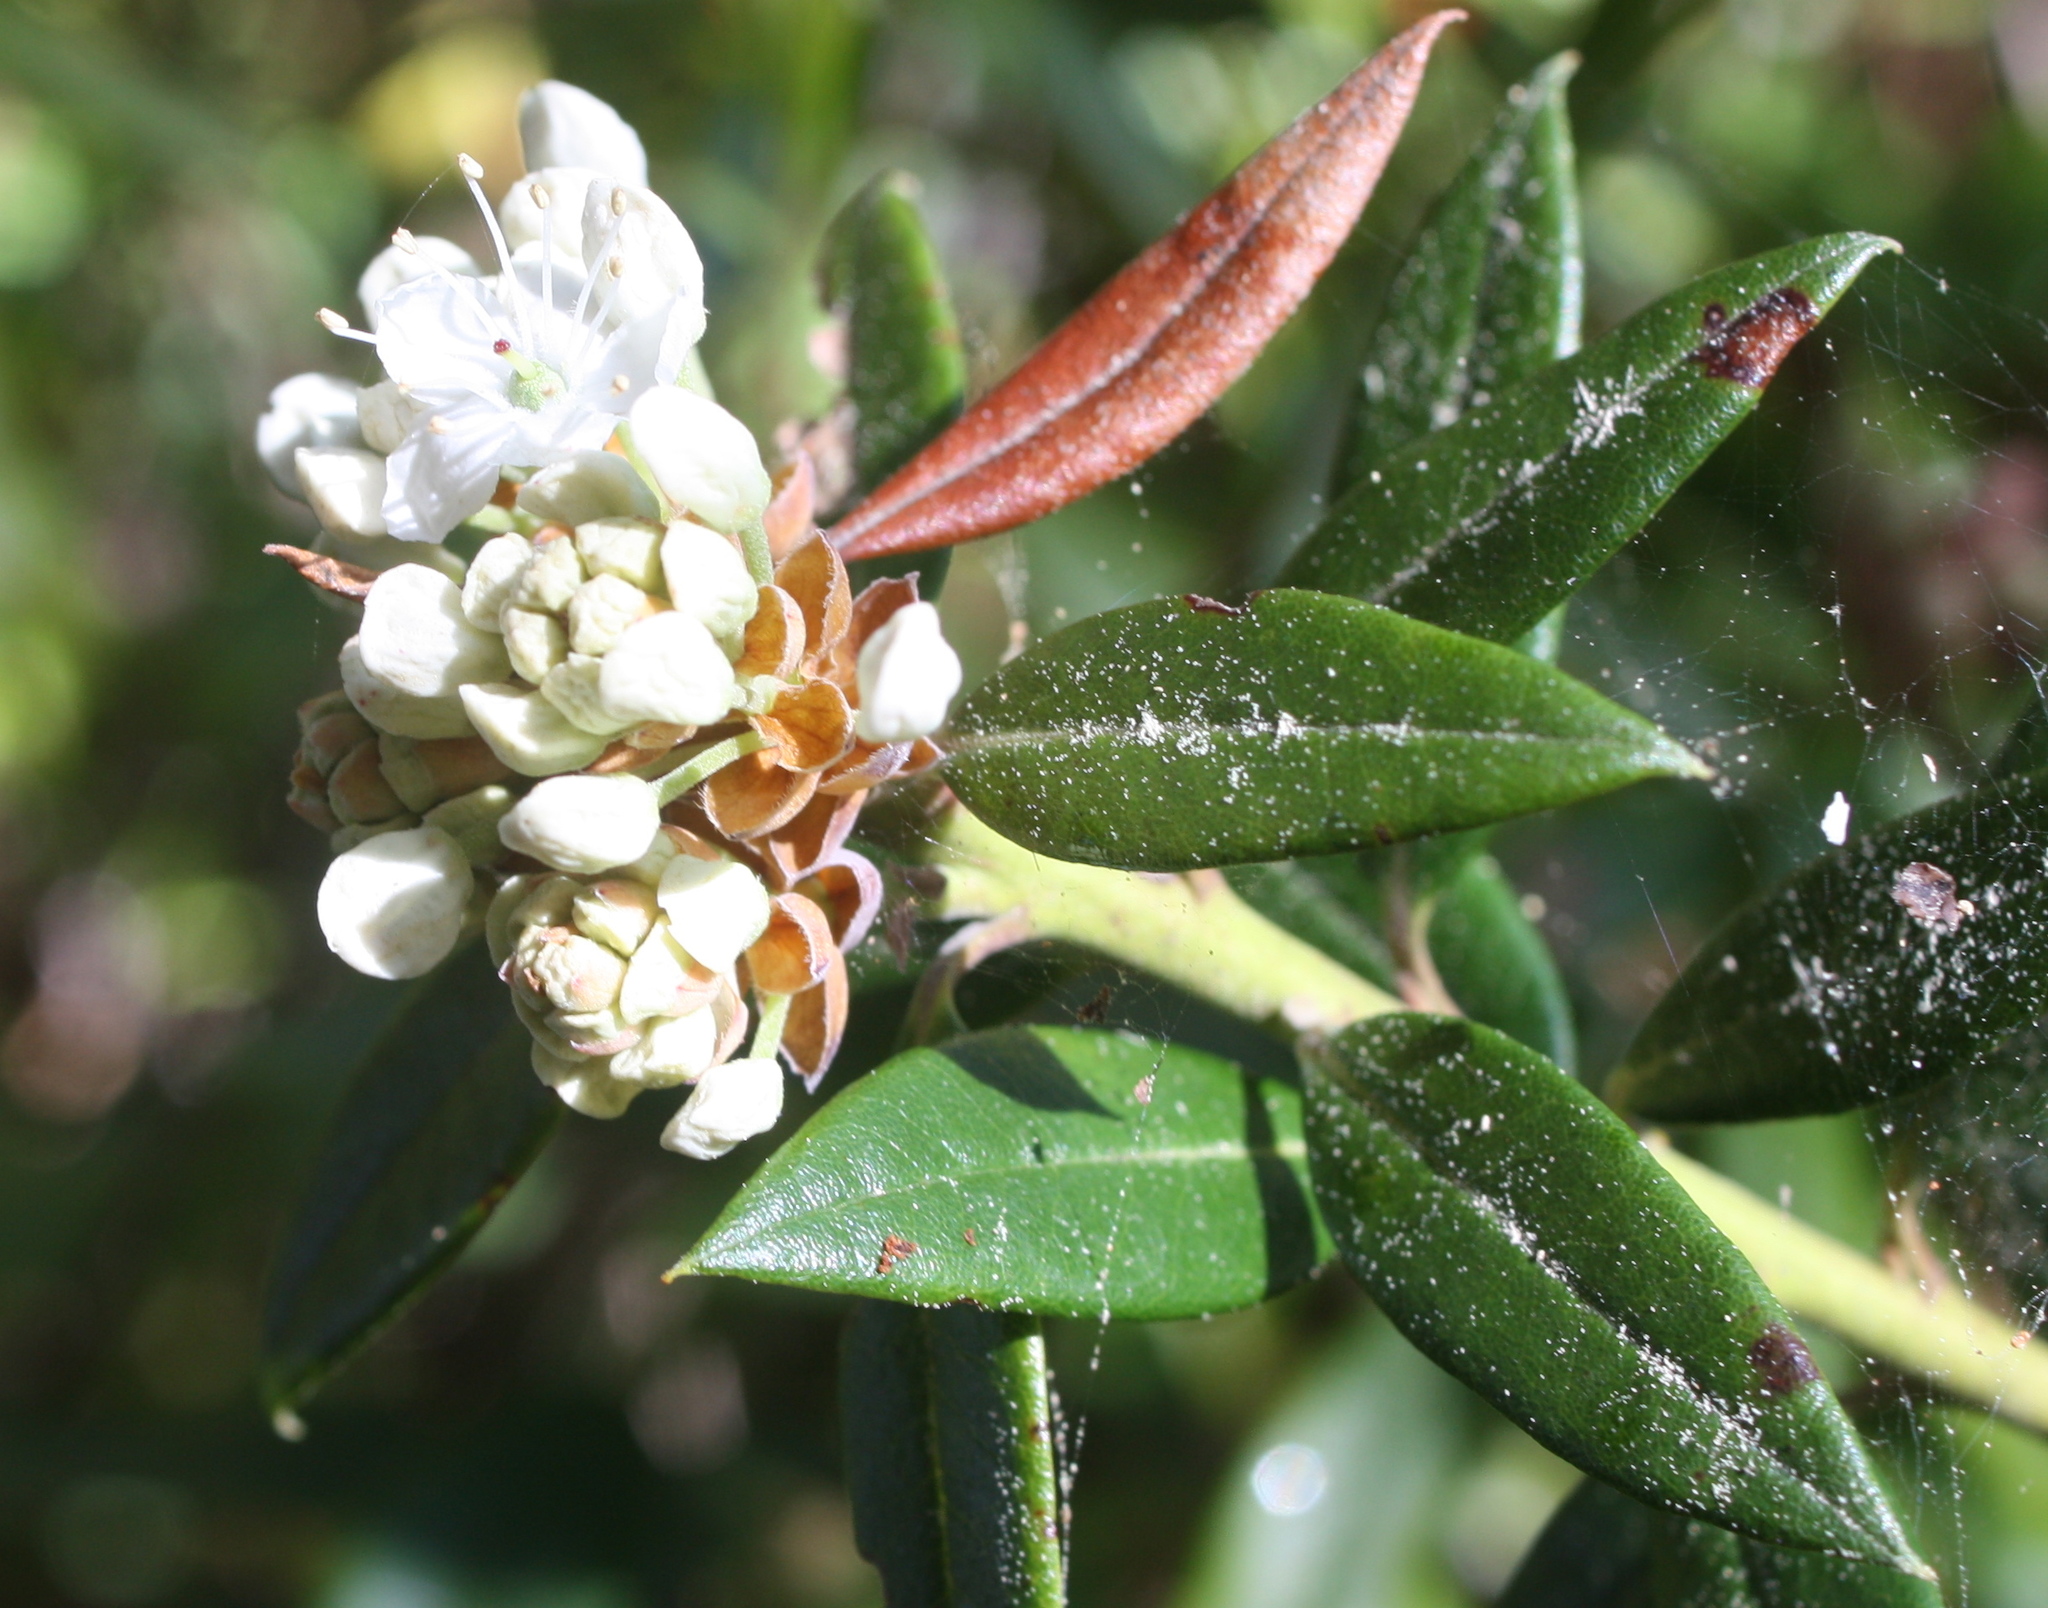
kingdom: Plantae
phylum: Tracheophyta
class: Magnoliopsida
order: Ericales
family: Ericaceae
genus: Rhododendron
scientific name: Rhododendron columbianum
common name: Western labrador tea
